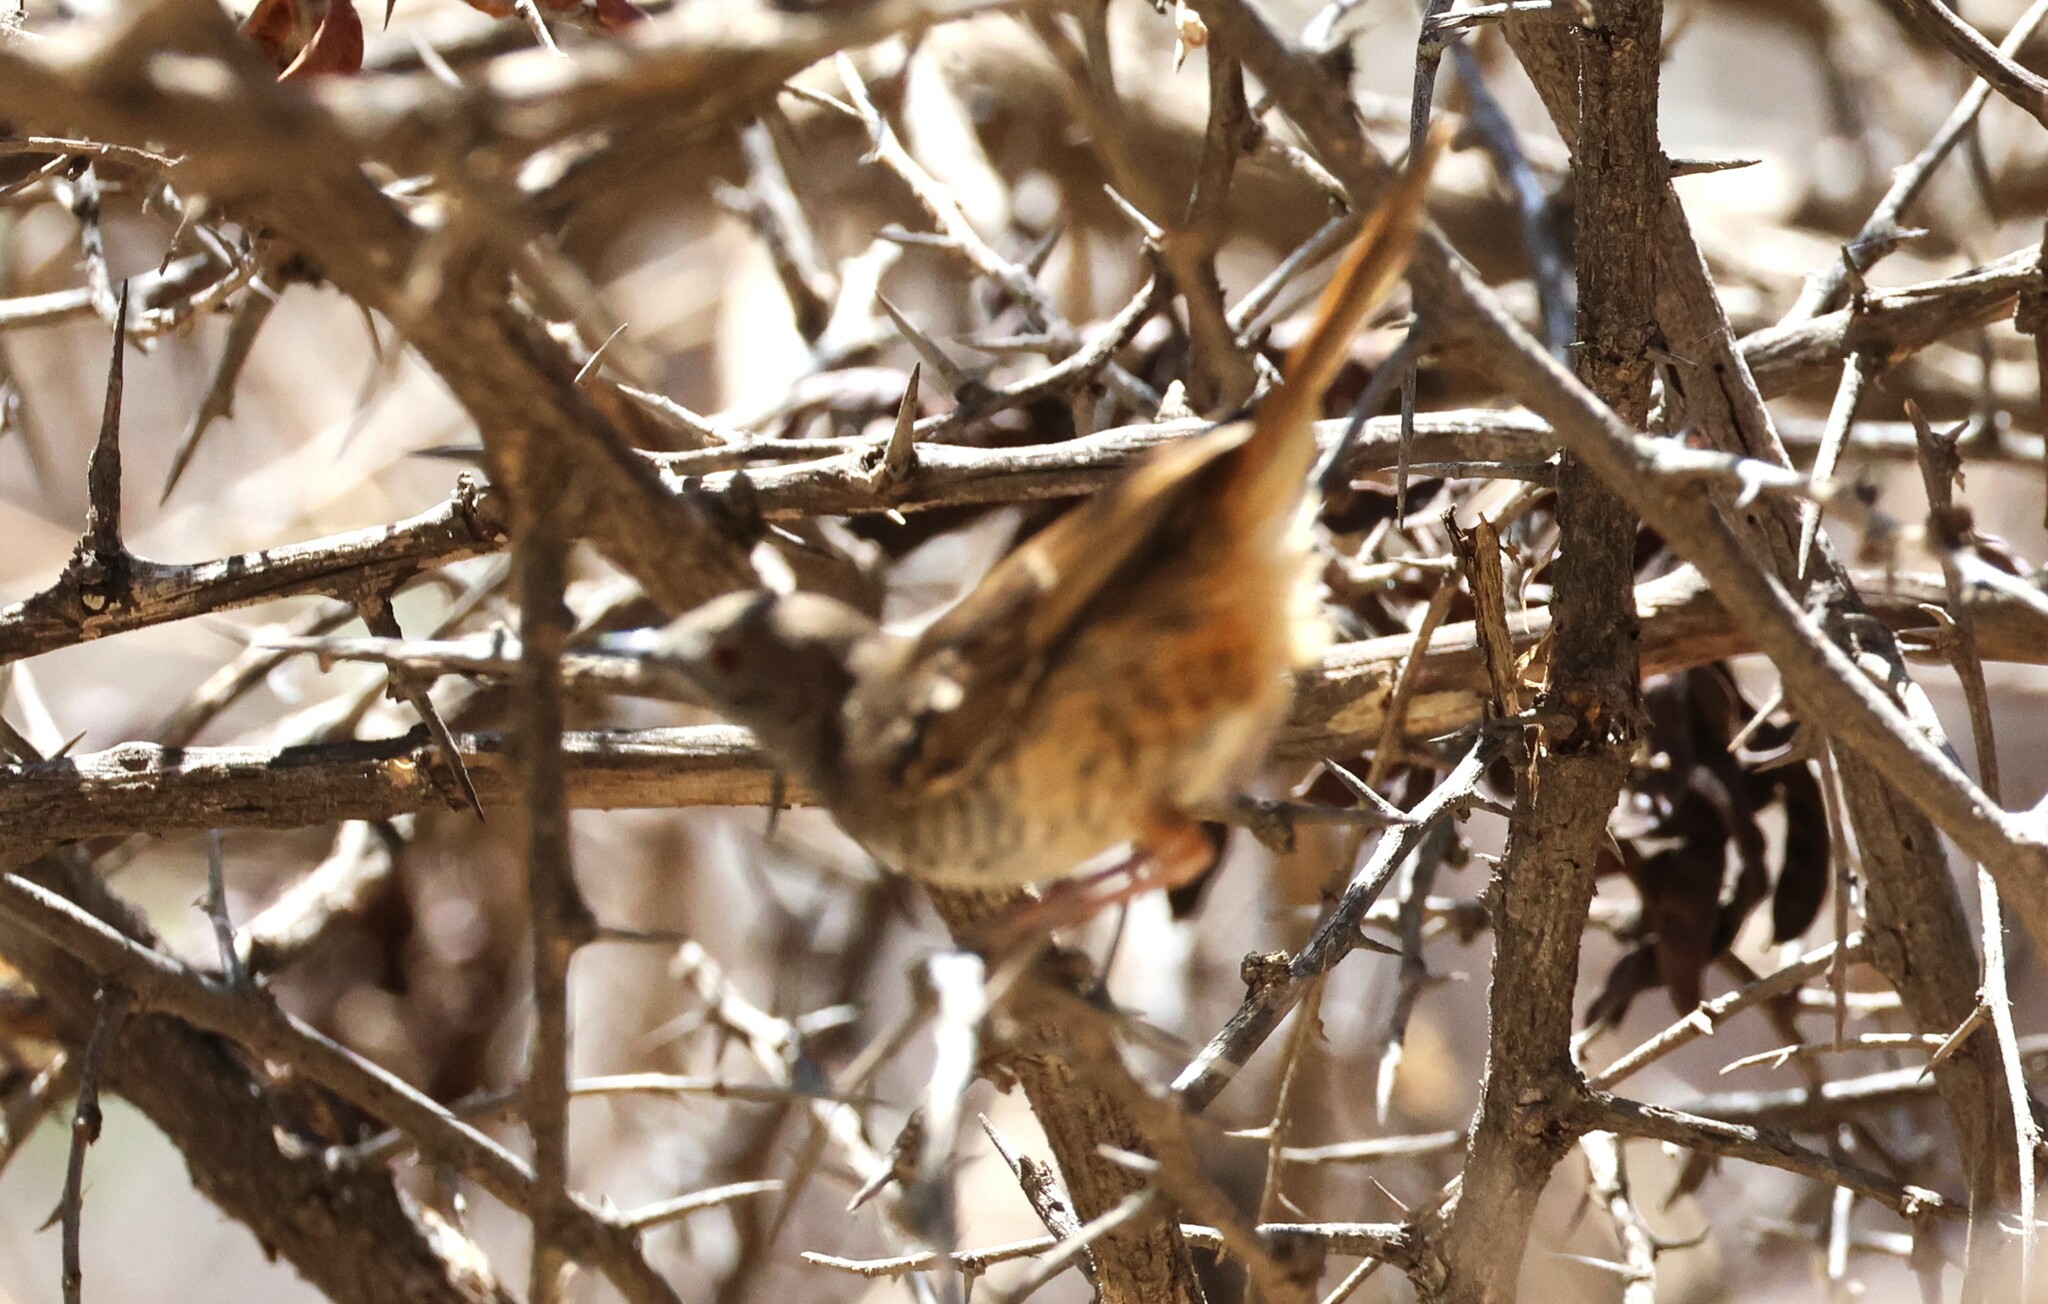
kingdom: Animalia
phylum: Chordata
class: Aves
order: Passeriformes
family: Cisticolidae
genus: Calamonastes
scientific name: Calamonastes fasciolatus
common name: Barred wren-warbler
